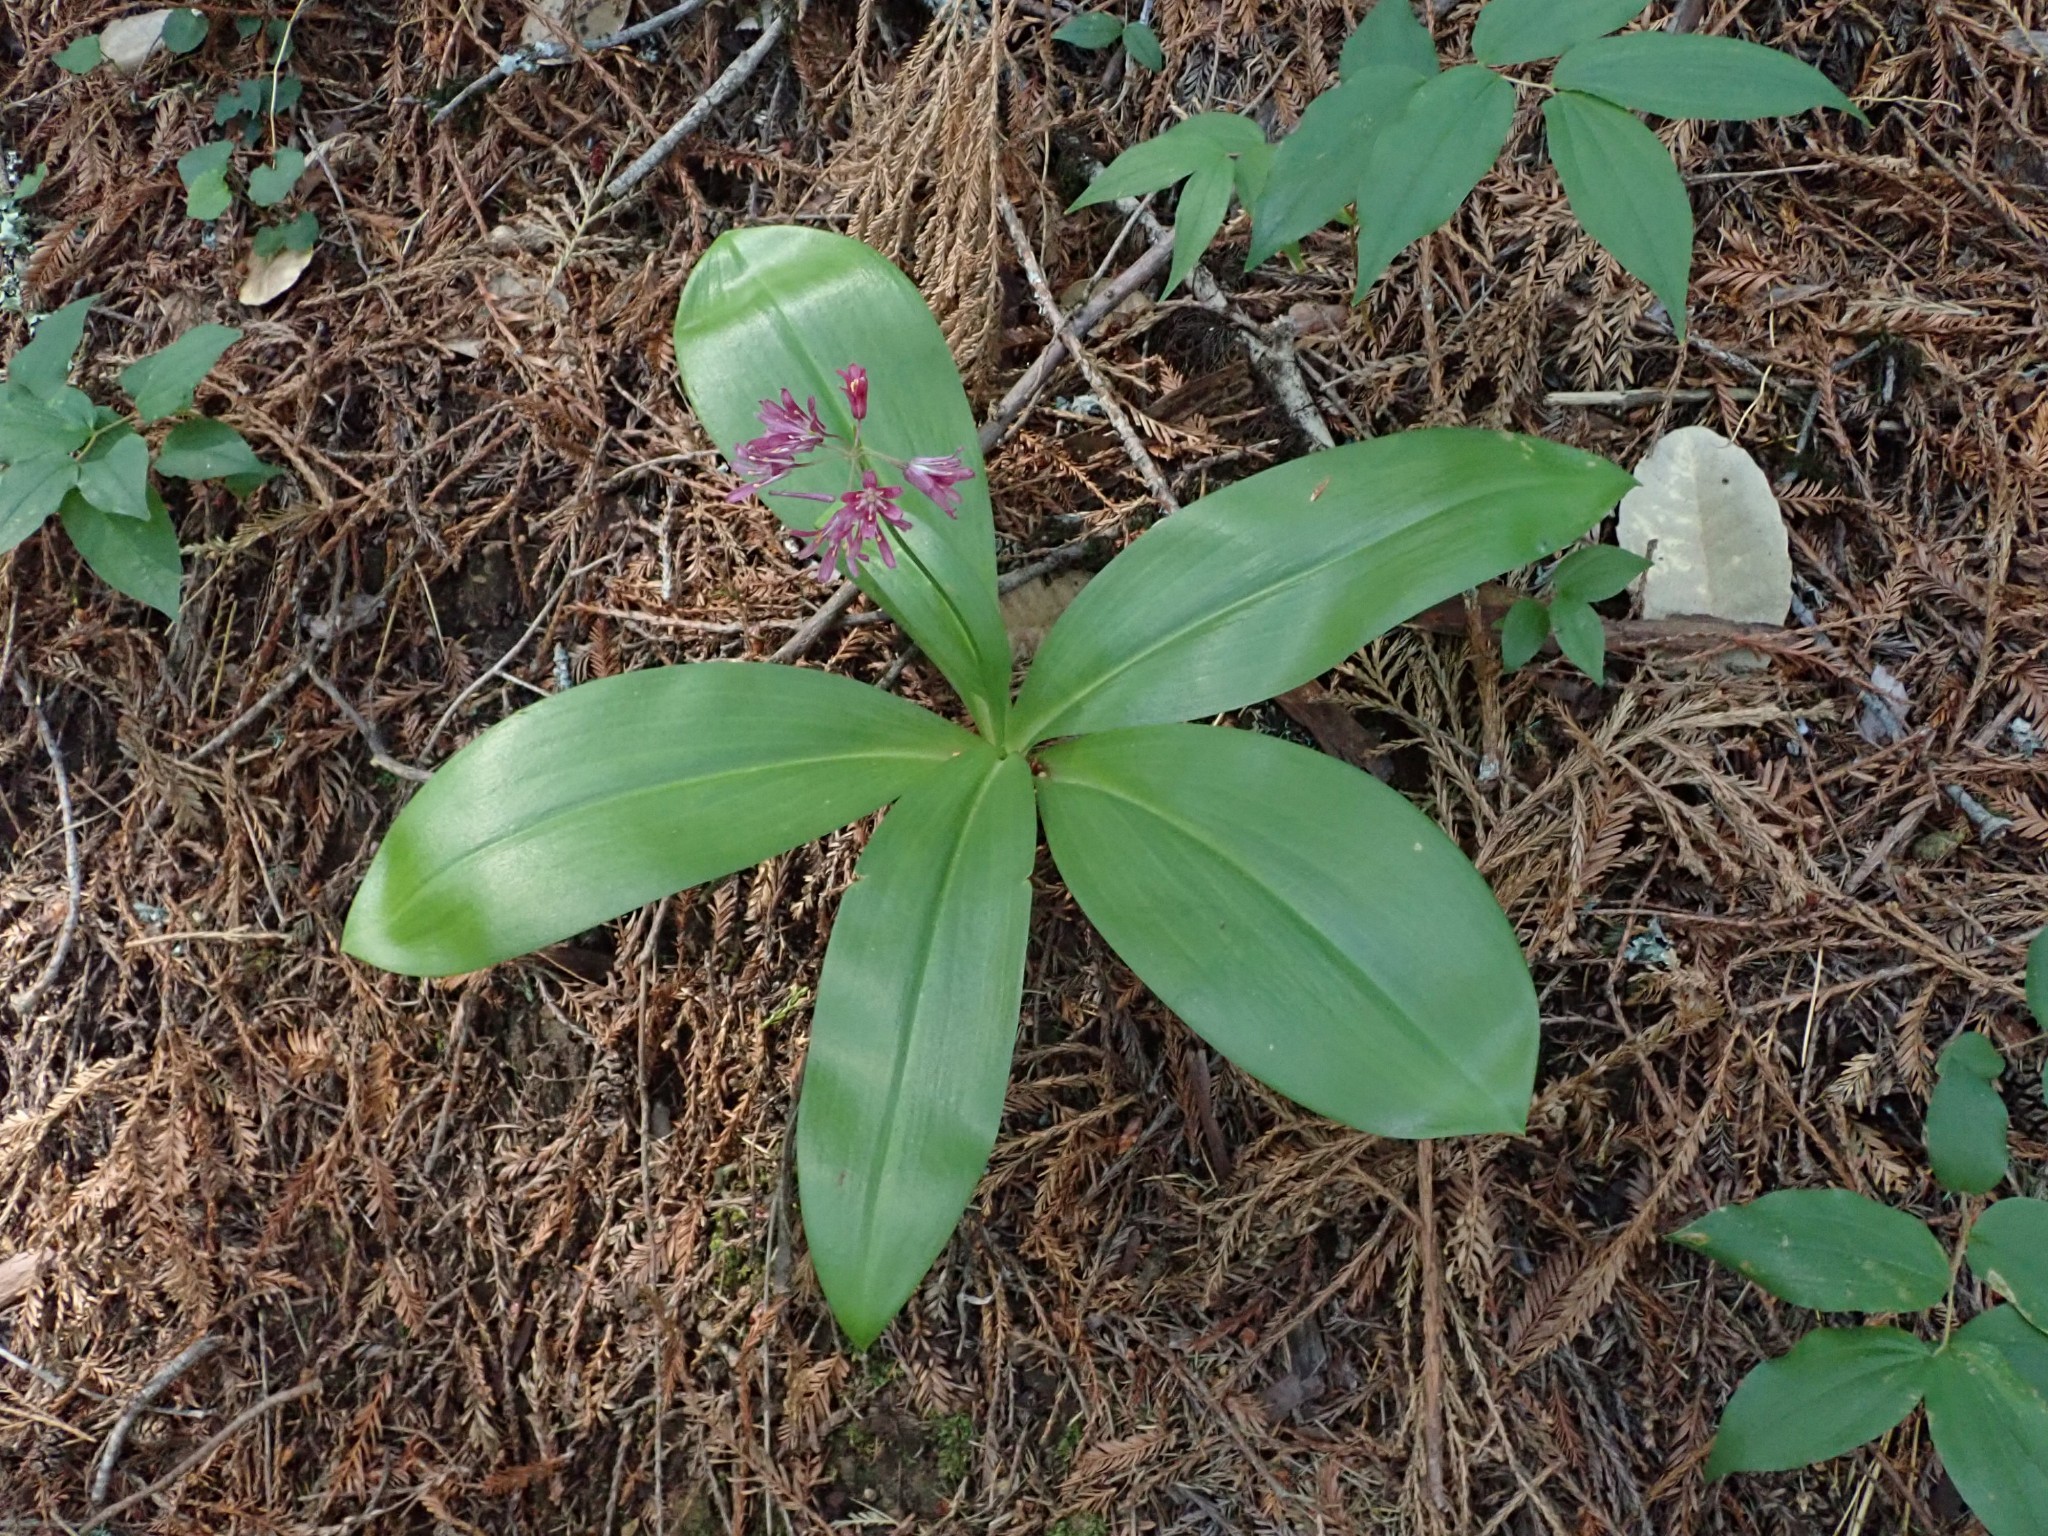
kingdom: Plantae
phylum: Tracheophyta
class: Liliopsida
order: Liliales
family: Liliaceae
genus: Clintonia
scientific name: Clintonia andrewsiana
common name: Red clintonia
